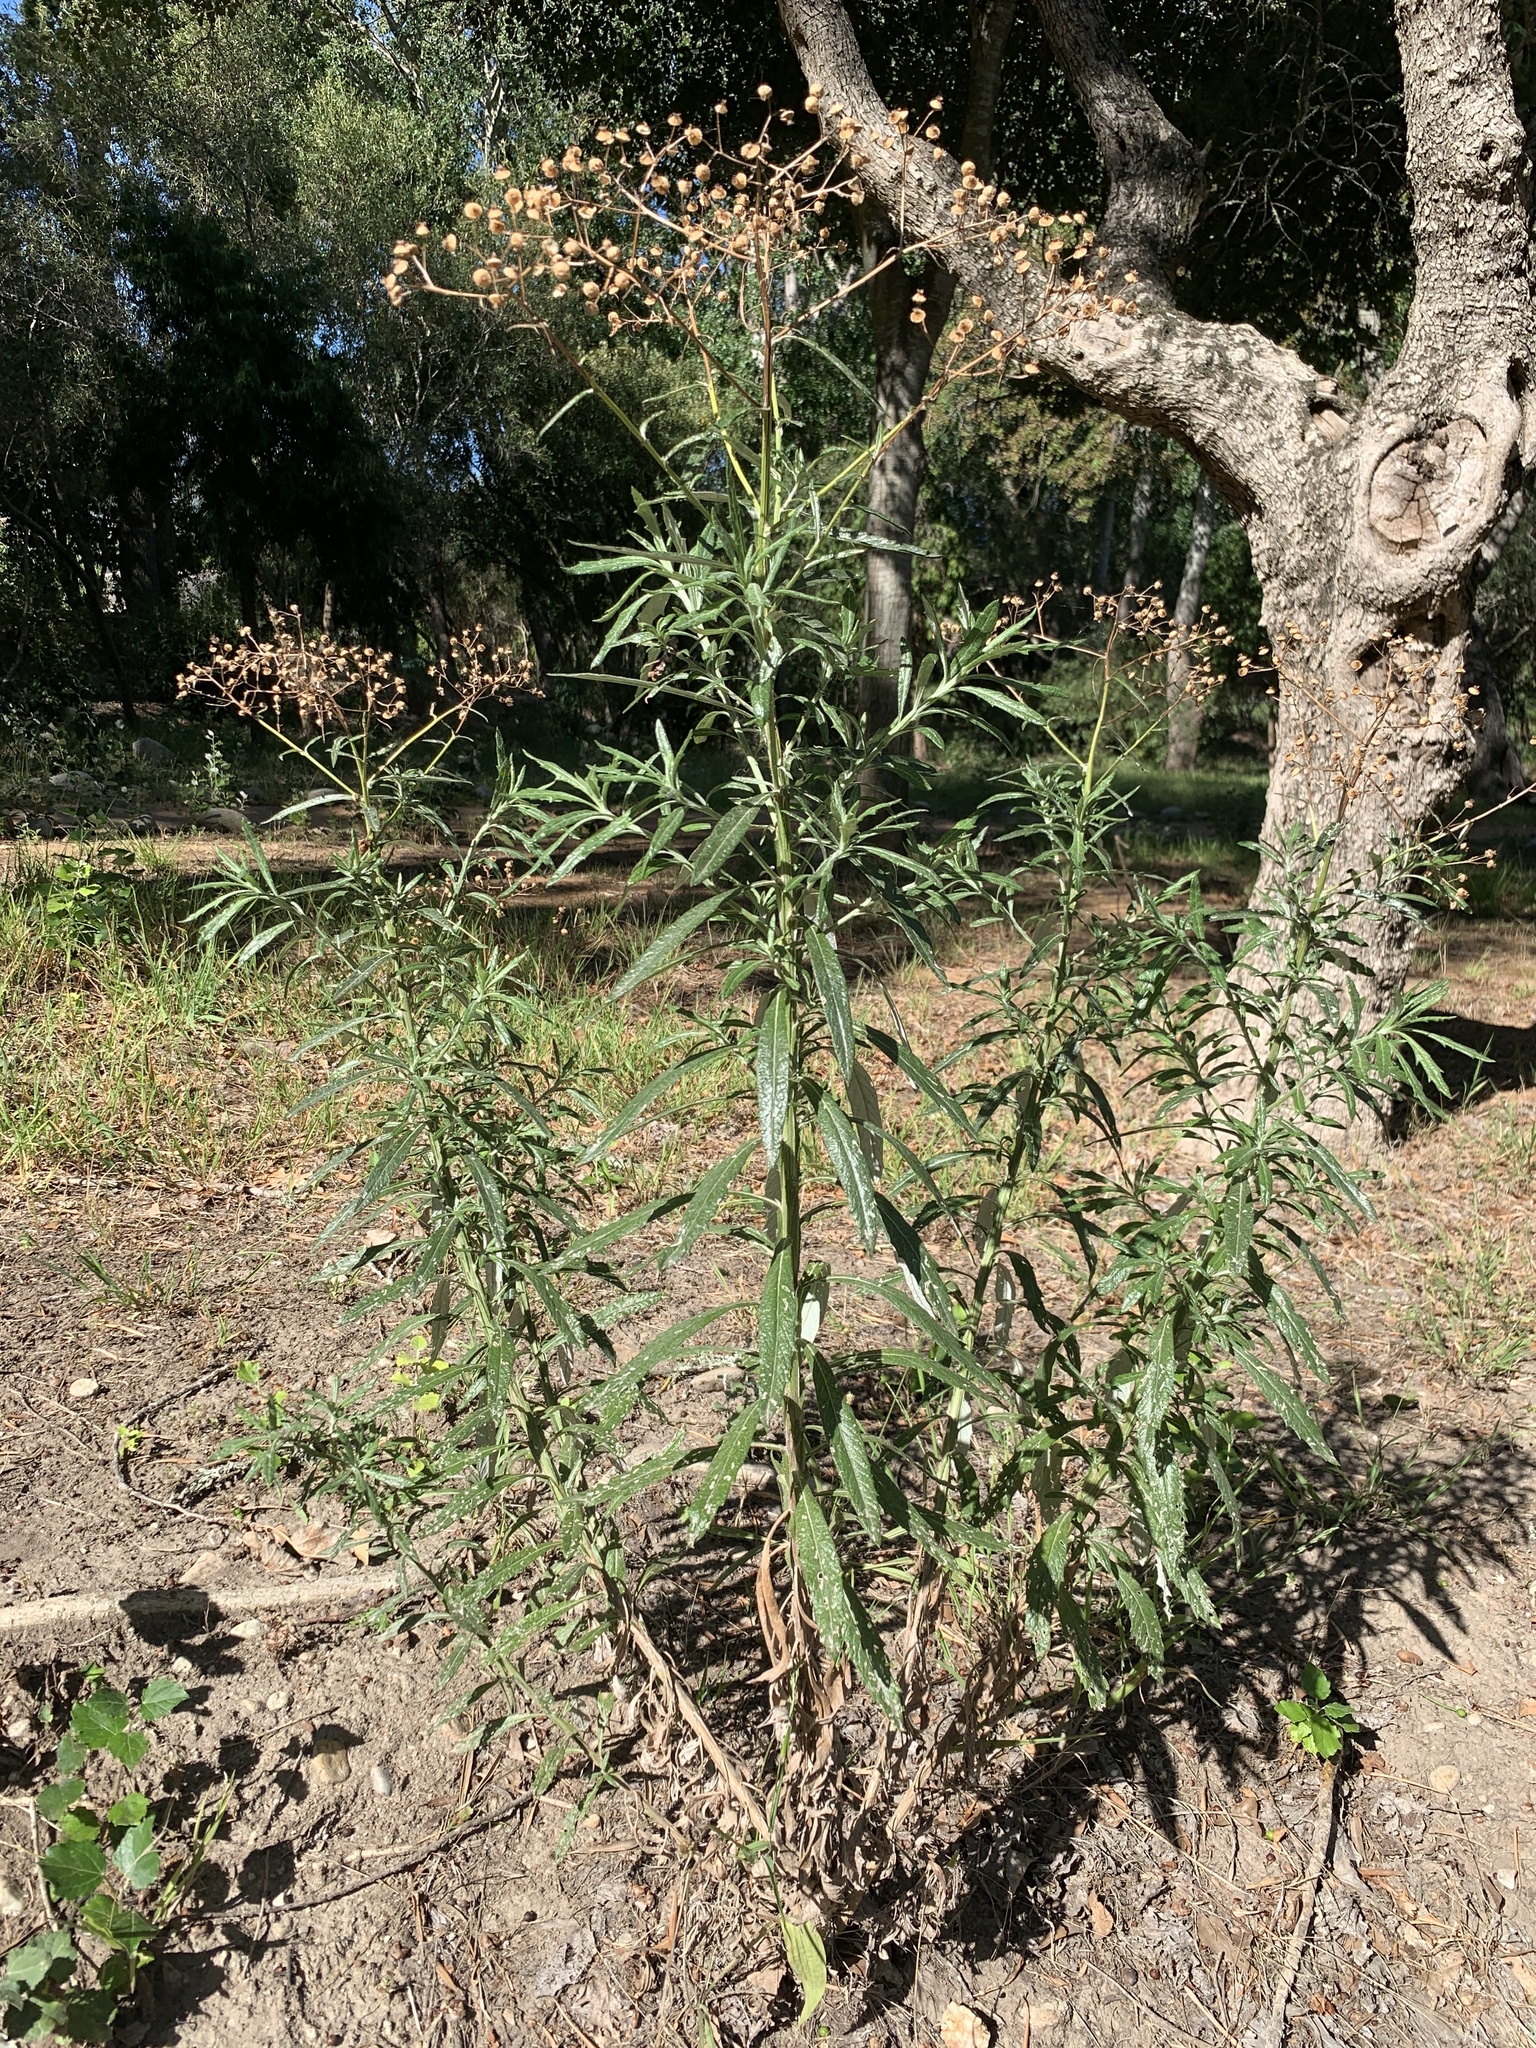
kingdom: Plantae
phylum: Tracheophyta
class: Magnoliopsida
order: Asterales
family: Asteraceae
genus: Senecio
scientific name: Senecio pterophorus
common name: Shoddy ragwort
